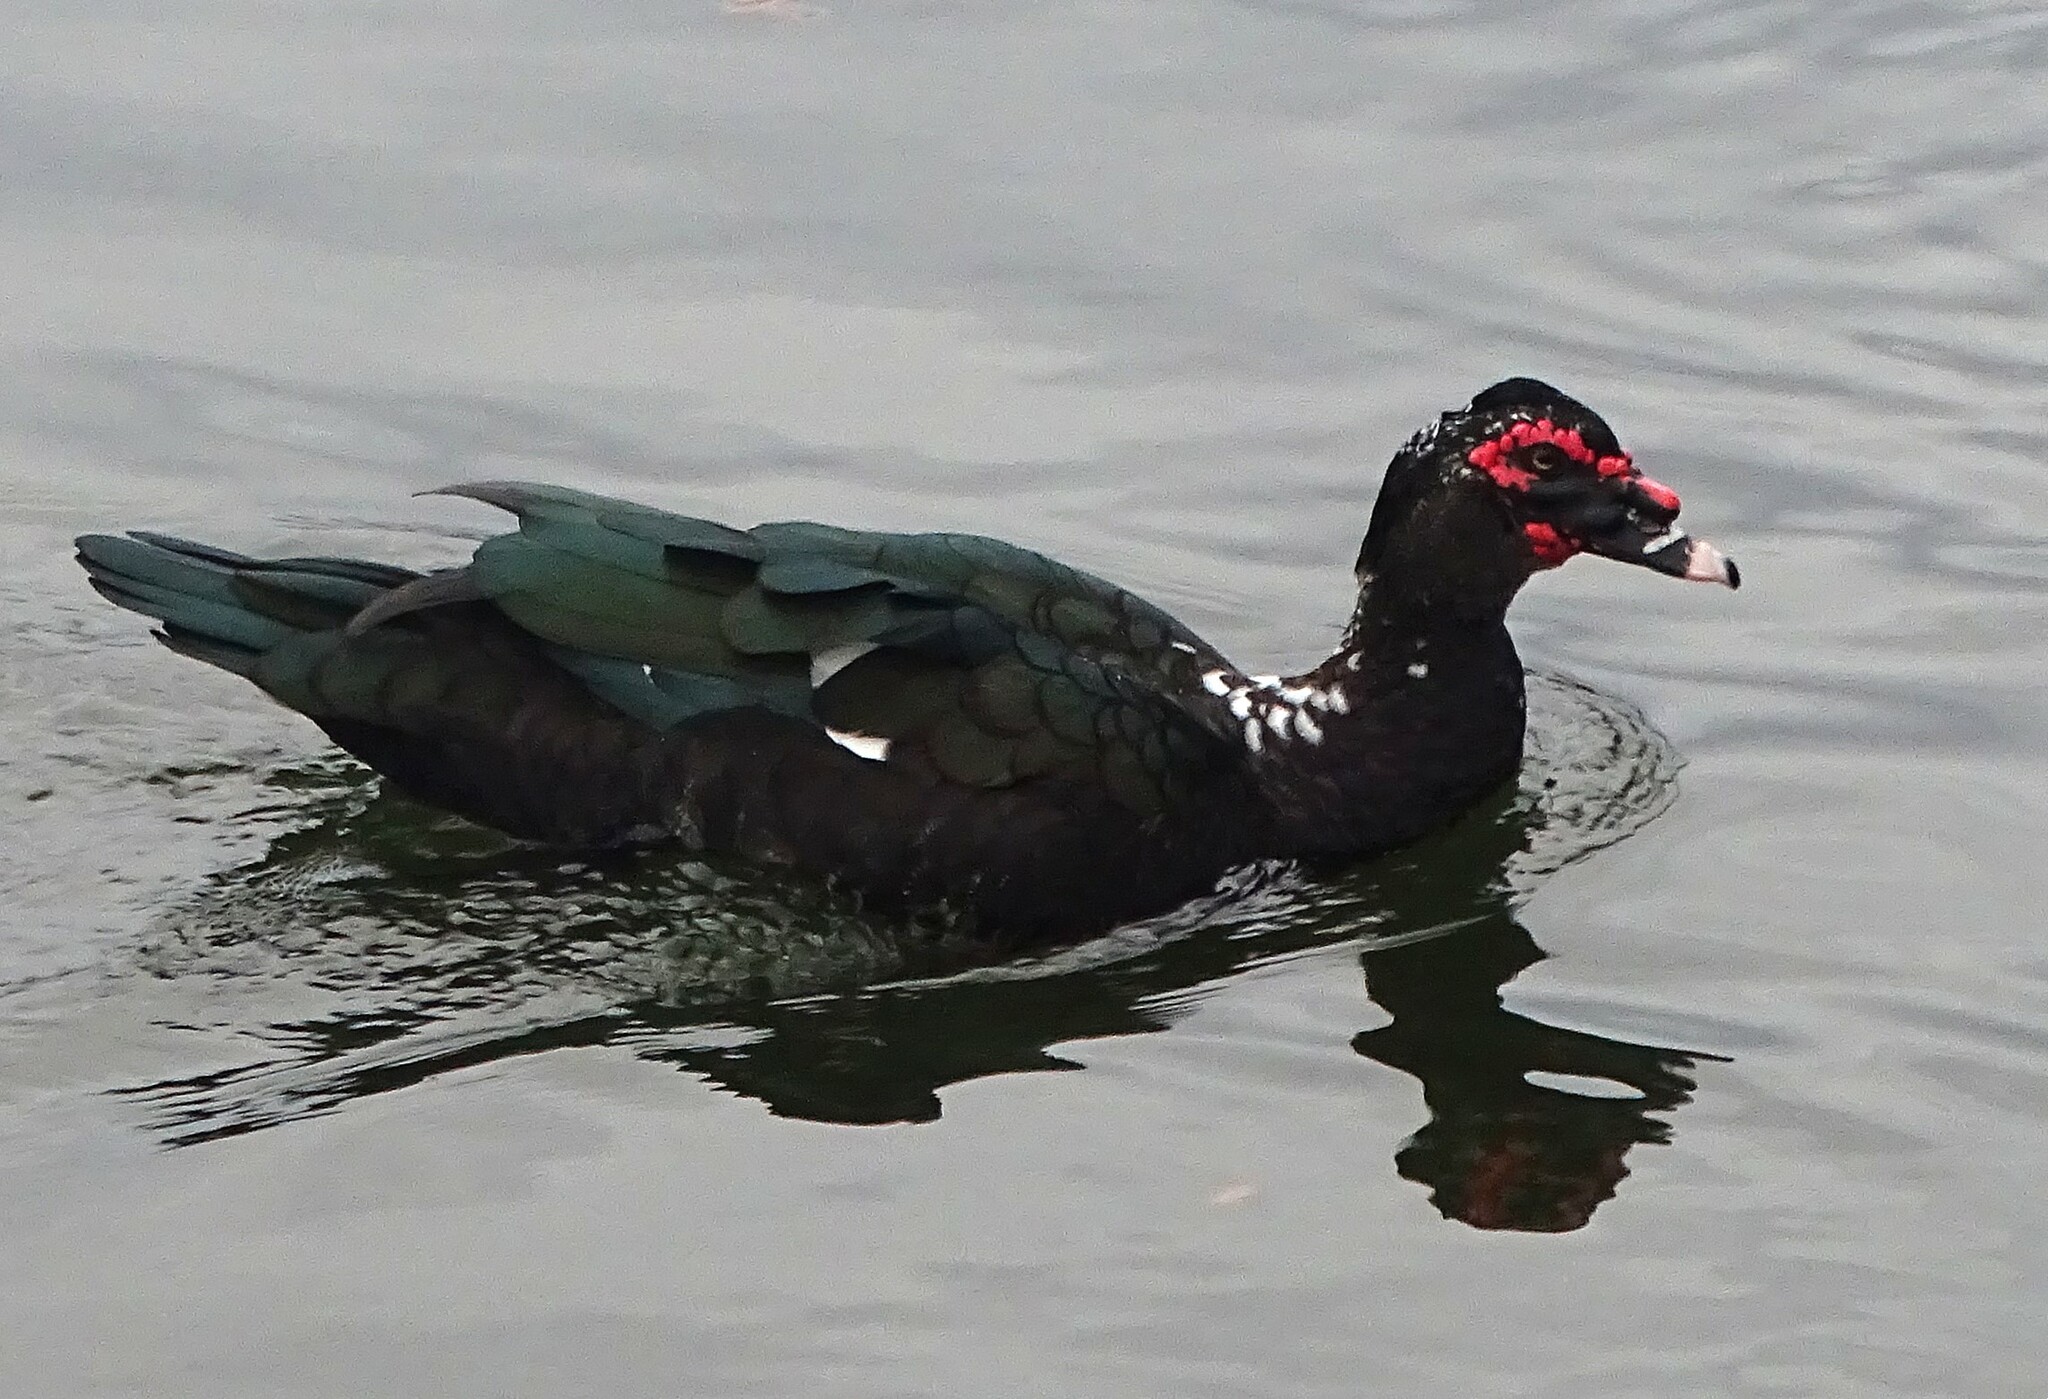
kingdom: Animalia
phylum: Chordata
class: Aves
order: Anseriformes
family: Anatidae
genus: Cairina
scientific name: Cairina moschata
